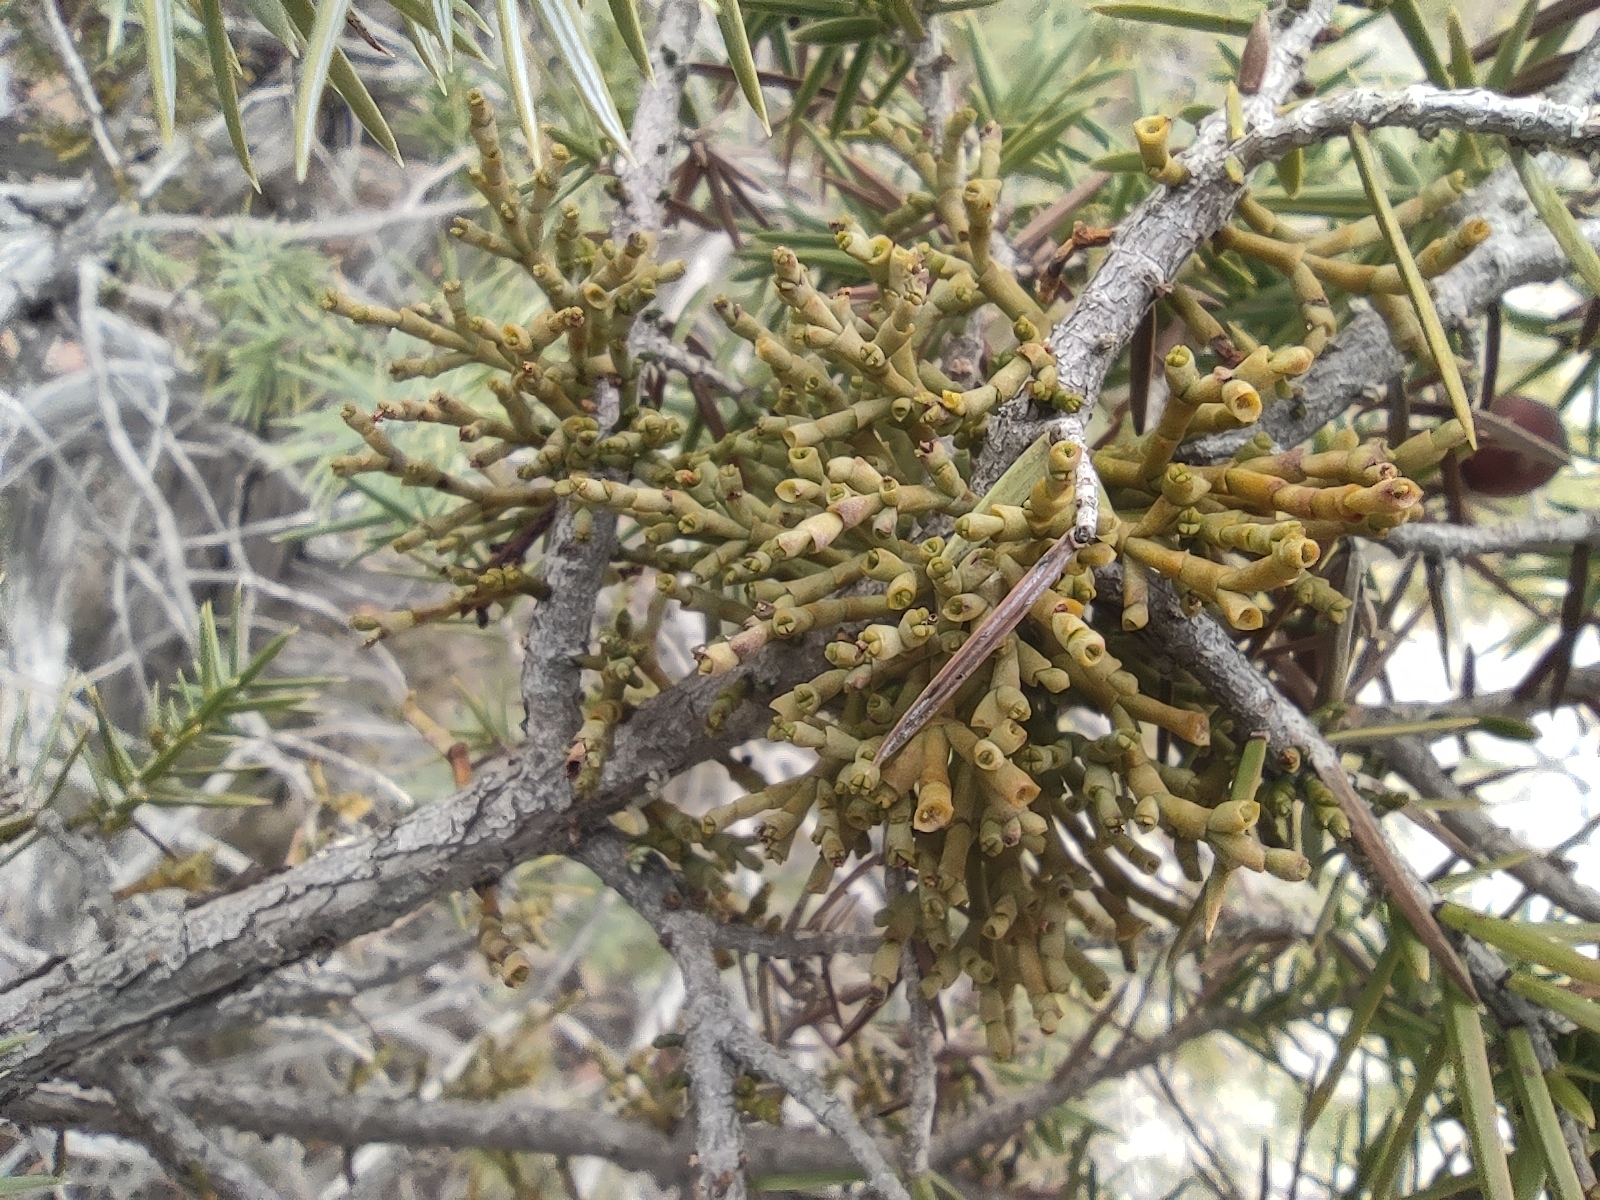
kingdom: Plantae
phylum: Tracheophyta
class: Magnoliopsida
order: Santalales
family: Viscaceae
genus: Arceuthobium
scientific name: Arceuthobium oxycedri
